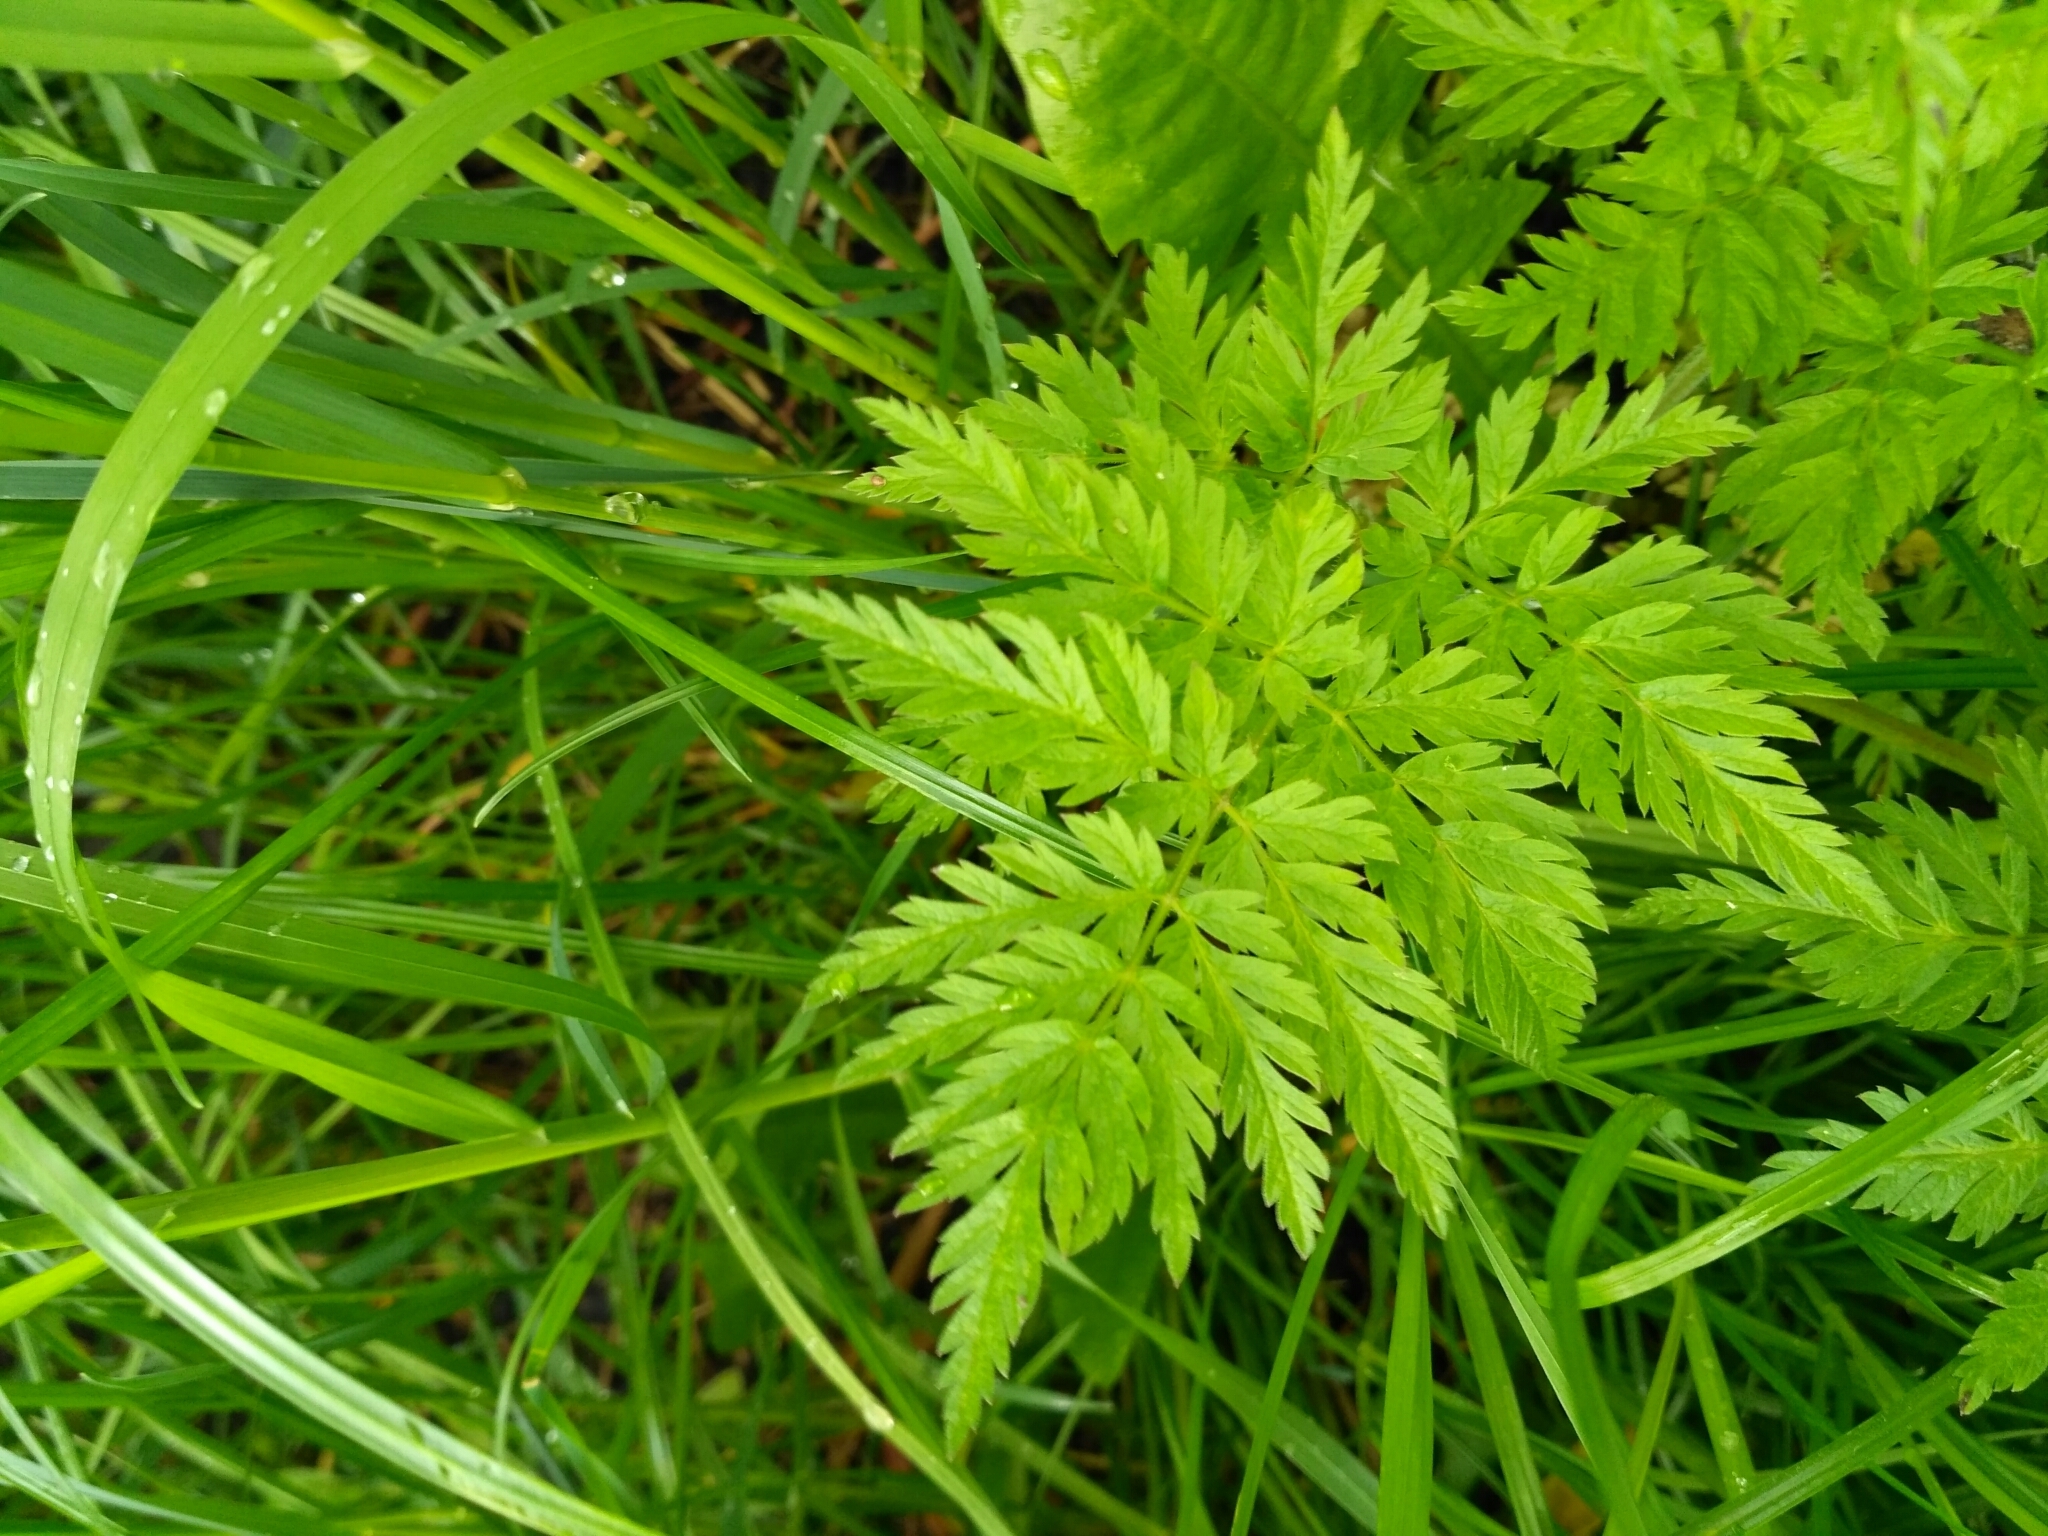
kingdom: Plantae
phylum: Tracheophyta
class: Magnoliopsida
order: Apiales
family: Apiaceae
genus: Anthriscus
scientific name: Anthriscus sylvestris
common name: Cow parsley
